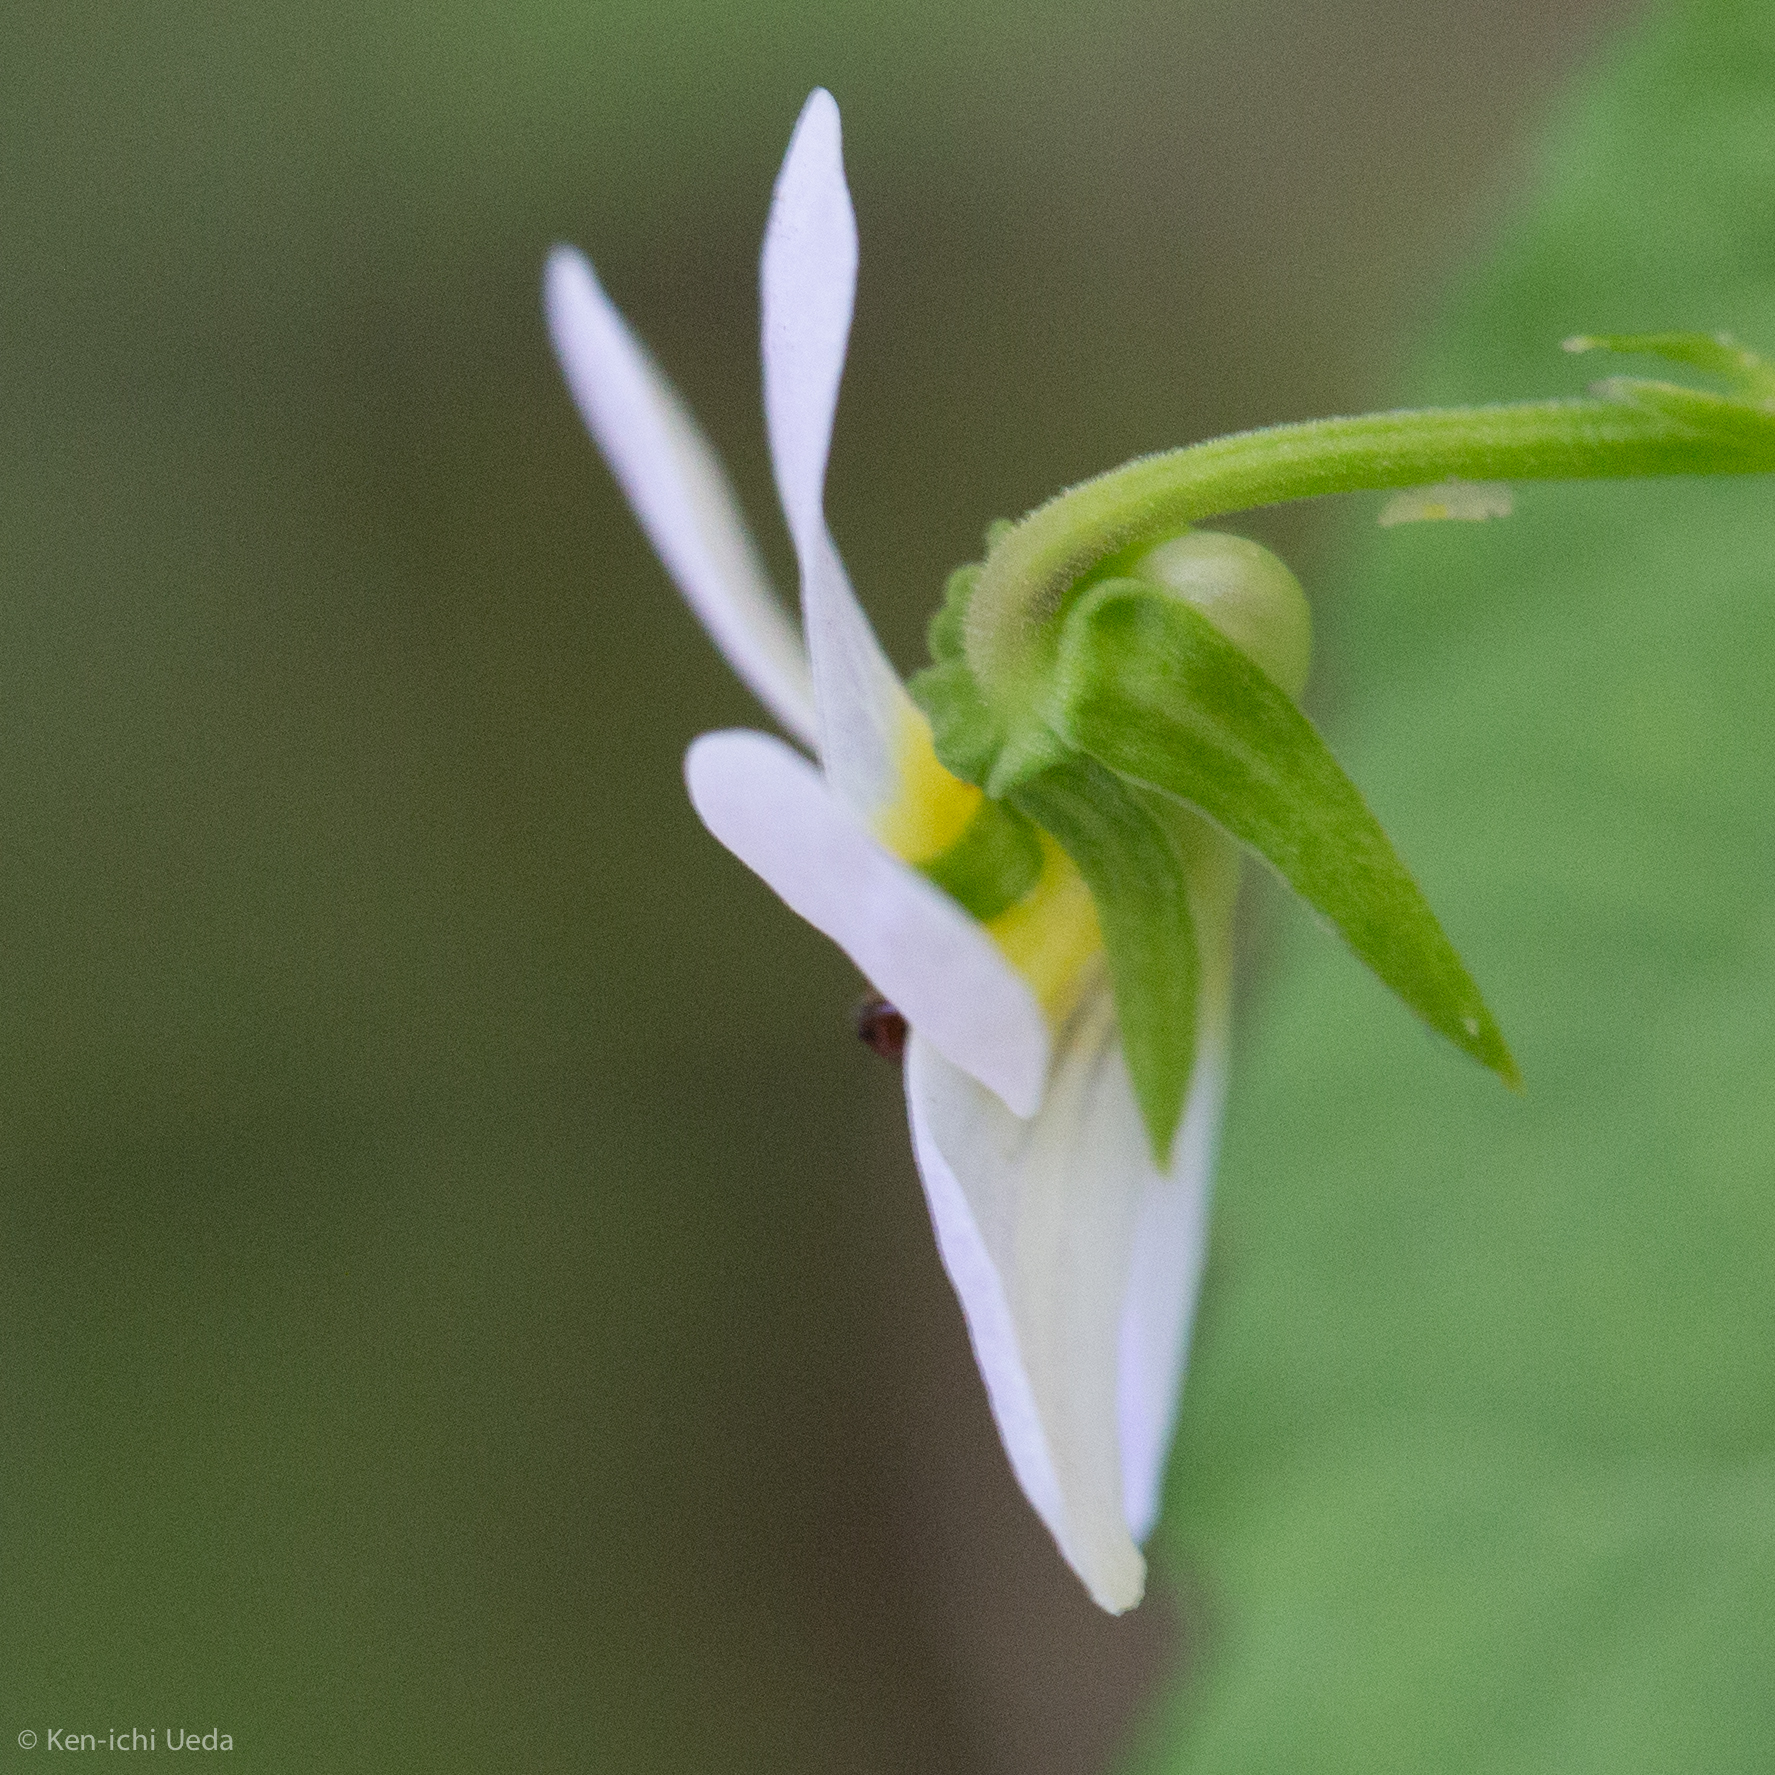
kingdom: Plantae
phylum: Tracheophyta
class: Magnoliopsida
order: Malpighiales
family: Violaceae
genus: Viola
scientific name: Viola canadensis
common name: Canada violet
